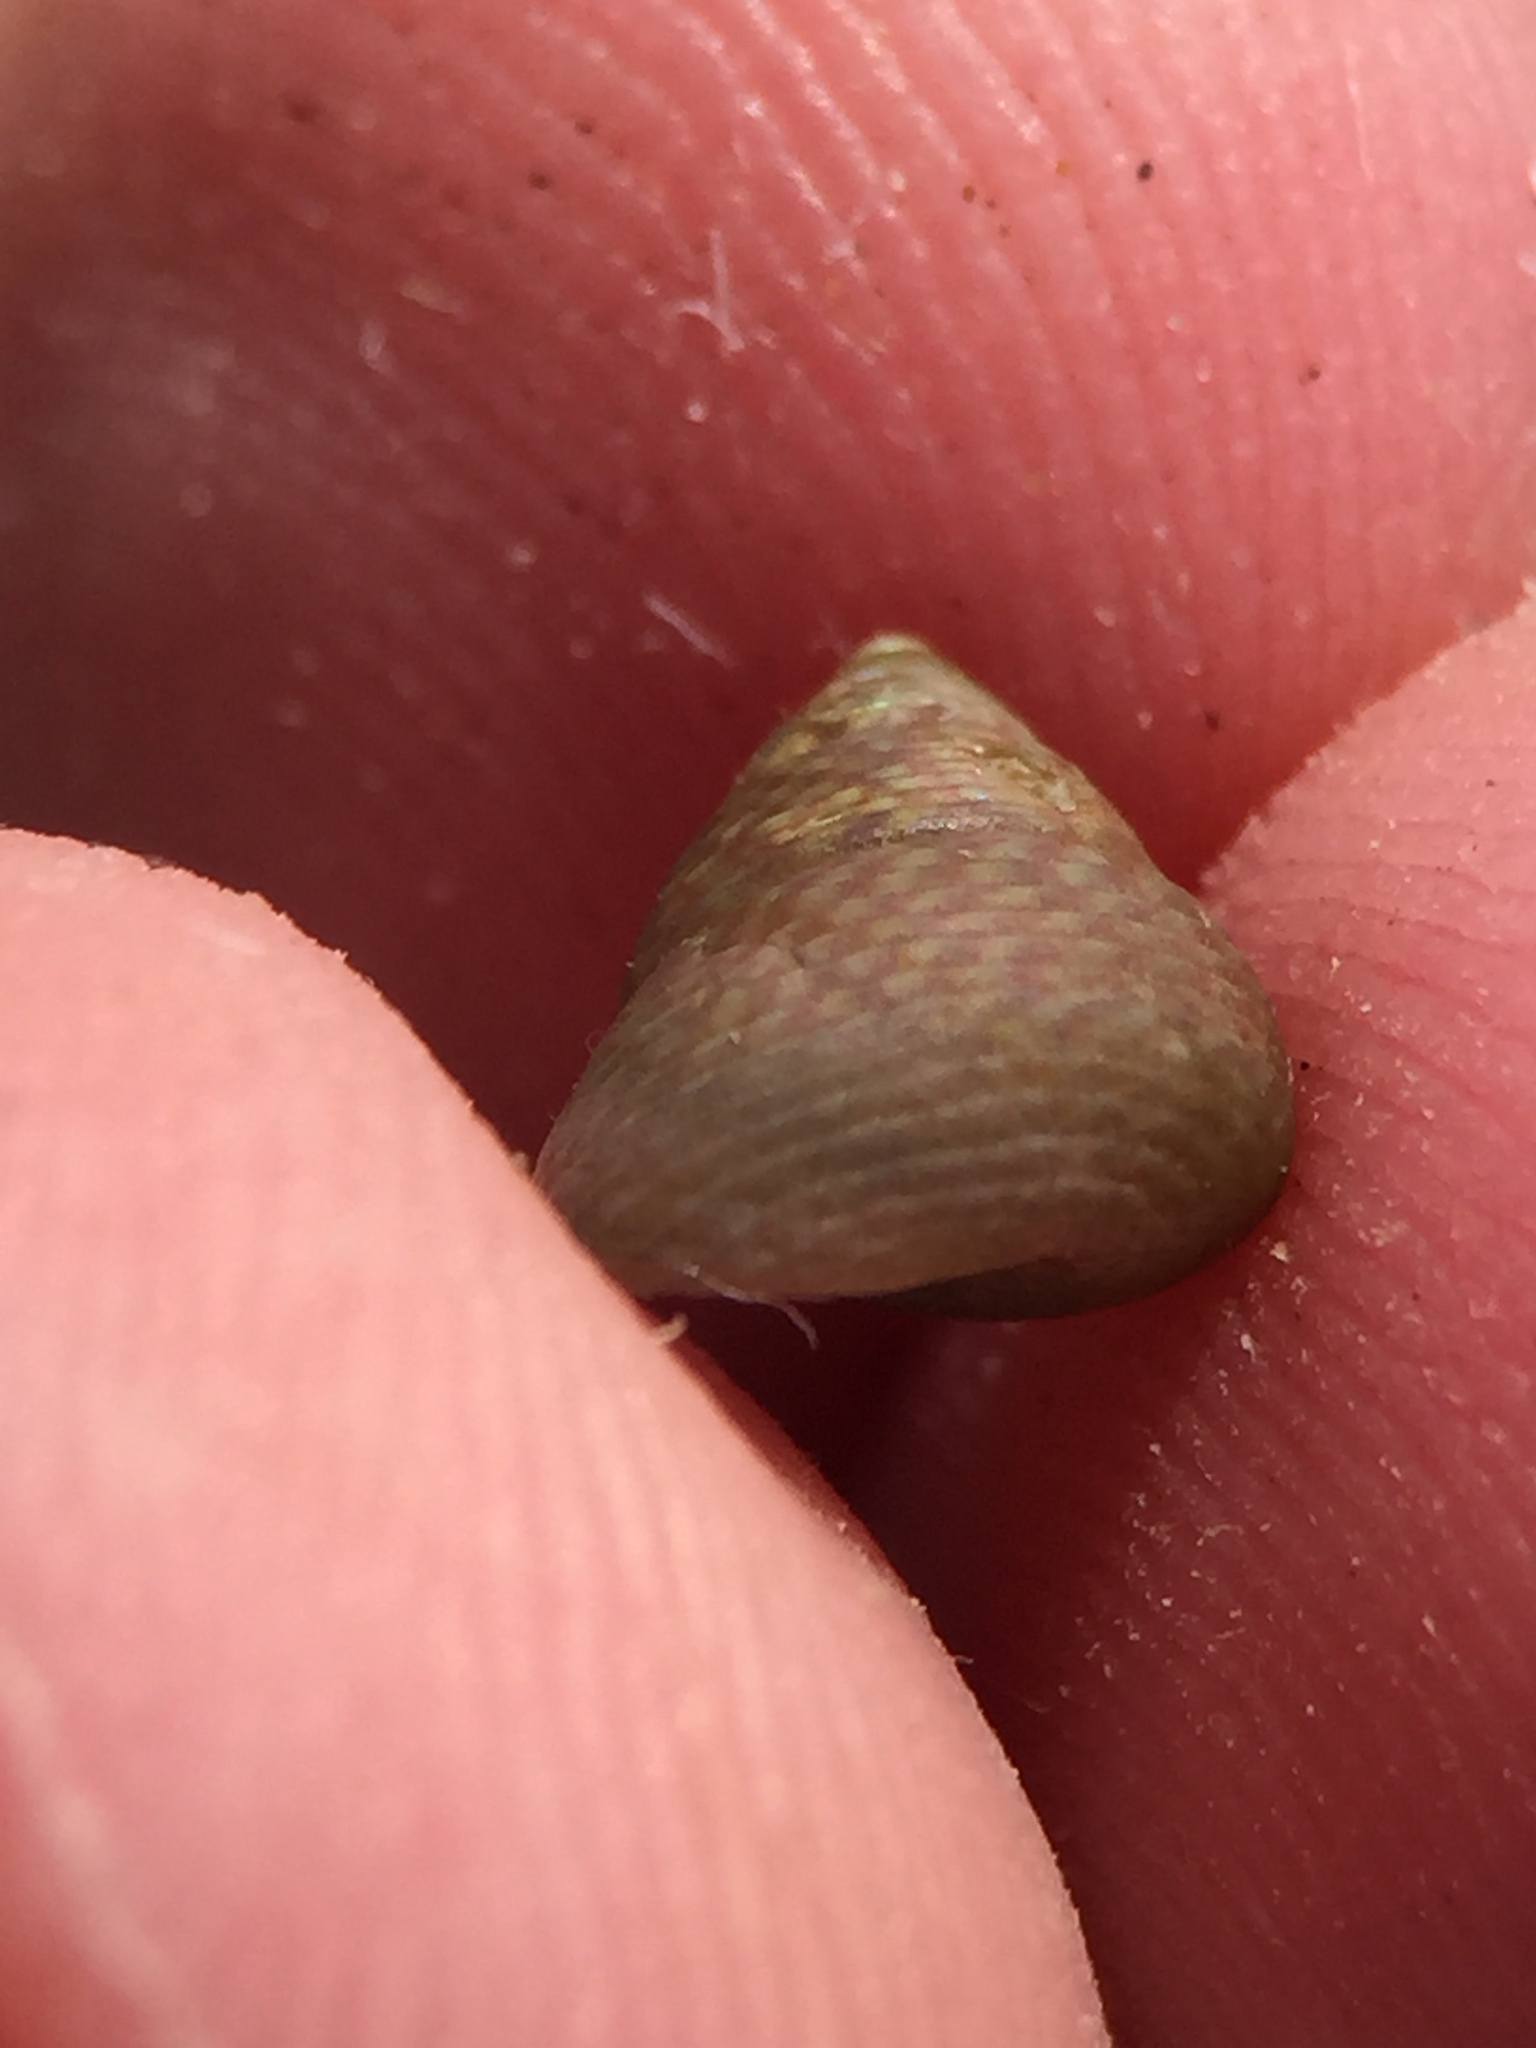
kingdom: Animalia
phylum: Mollusca
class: Gastropoda
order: Trochida
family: Trochidae
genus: Micrelenchus
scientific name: Micrelenchus sanguineus
